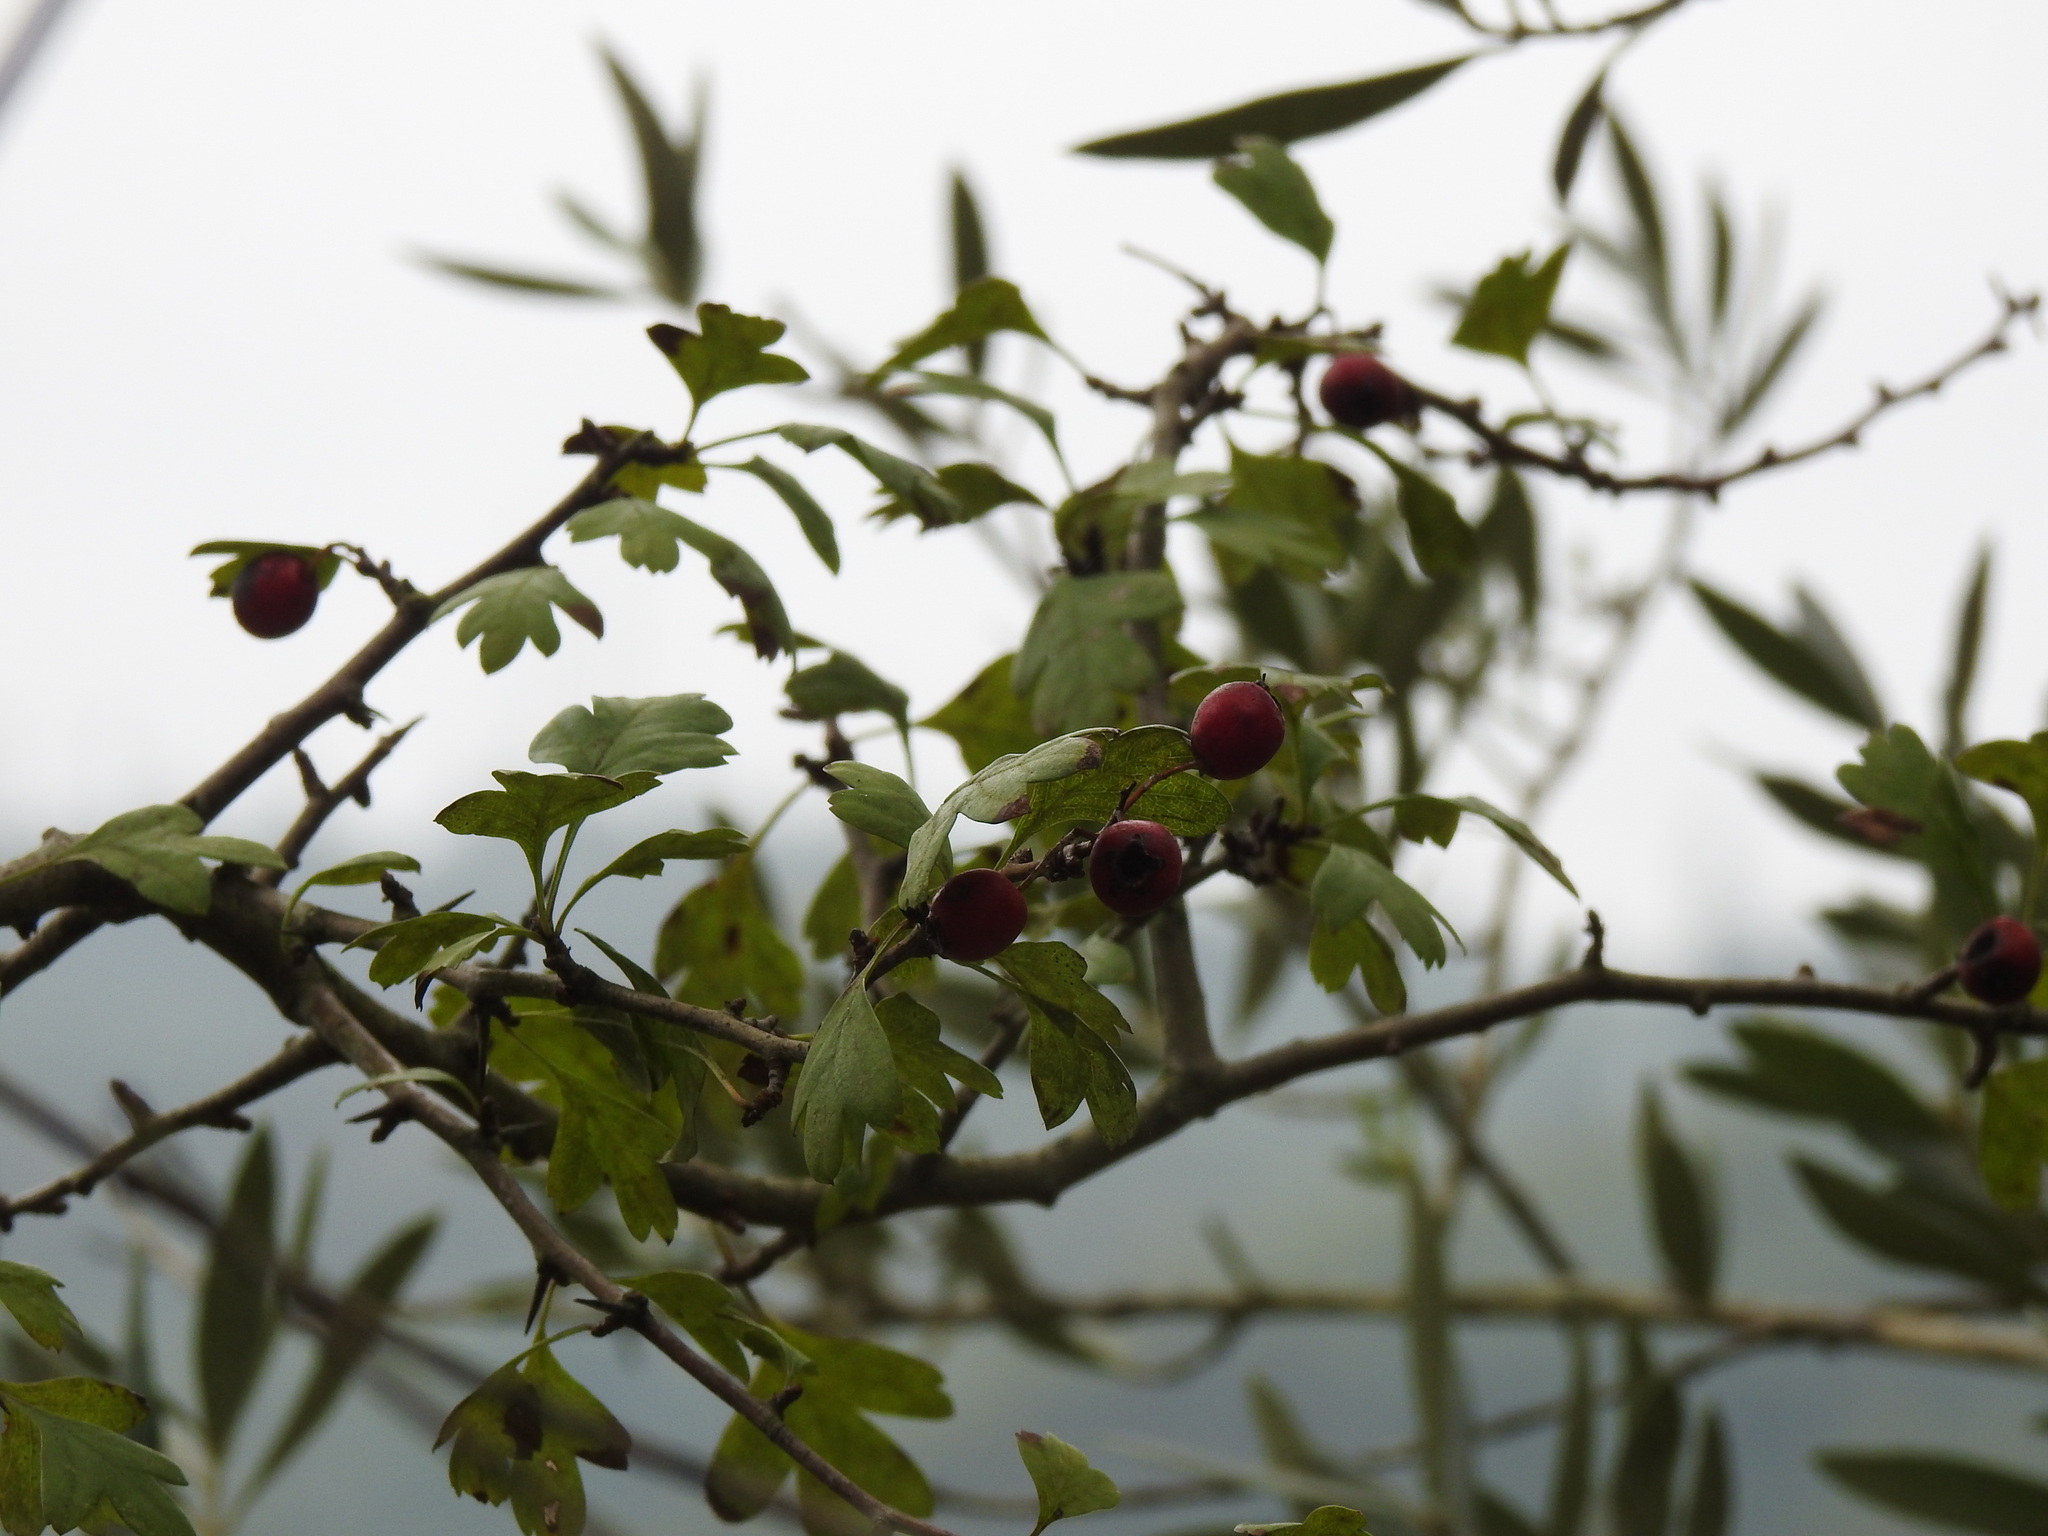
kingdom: Plantae
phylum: Tracheophyta
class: Magnoliopsida
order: Rosales
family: Rosaceae
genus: Crataegus
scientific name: Crataegus monogyna
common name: Hawthorn
